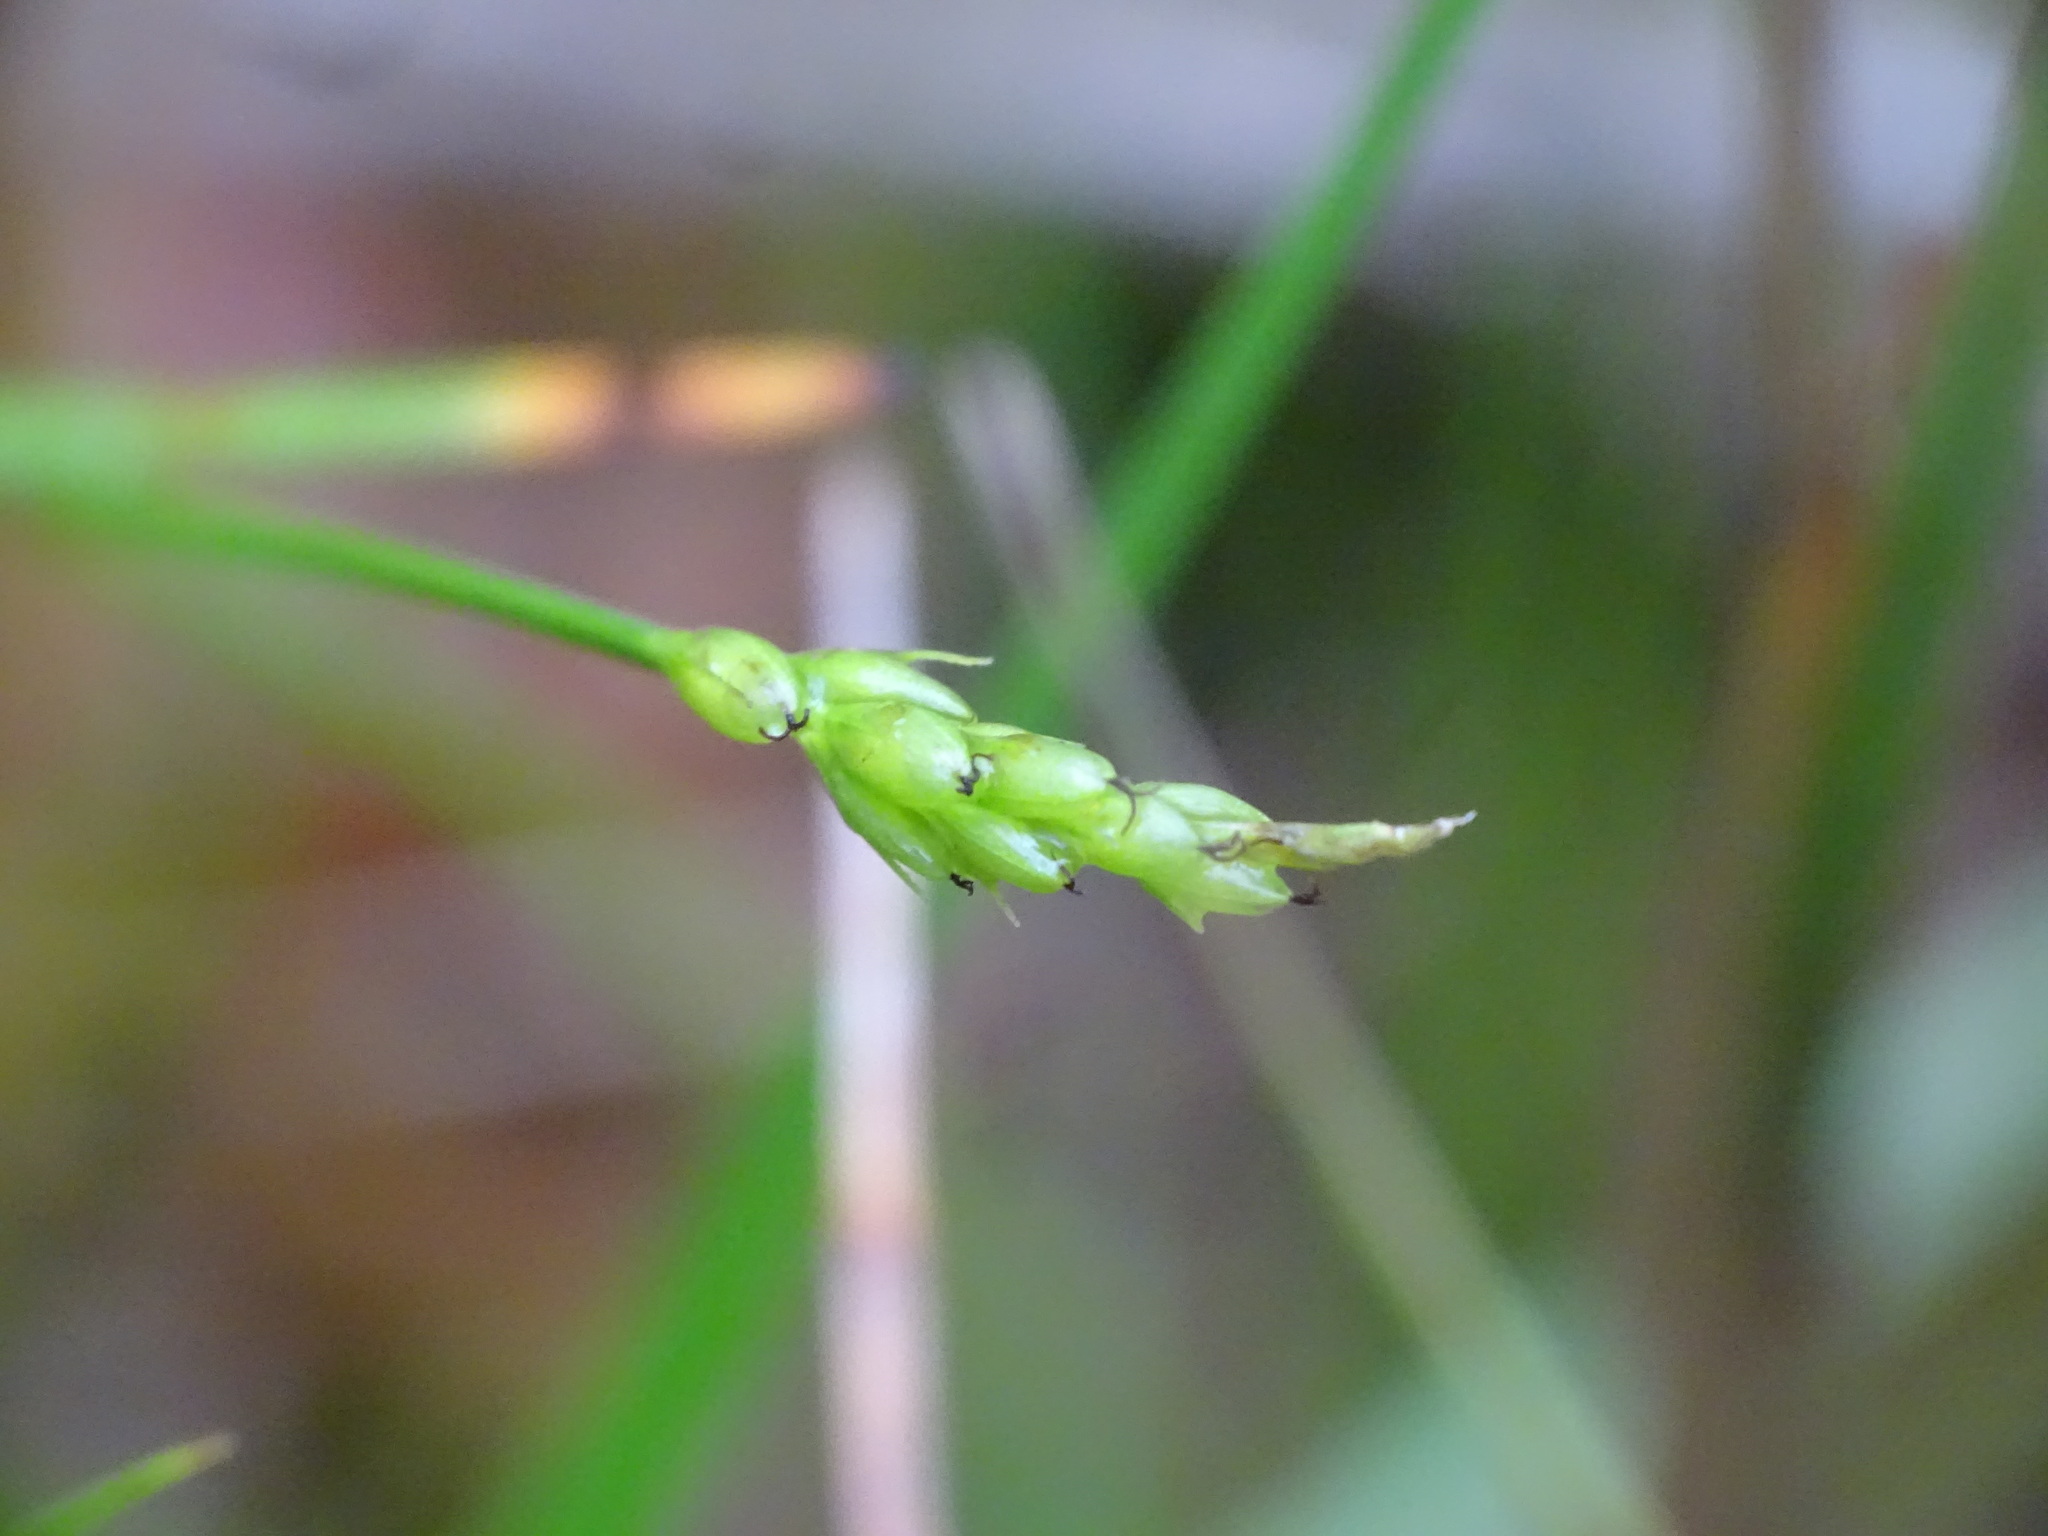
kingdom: Plantae
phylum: Tracheophyta
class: Liliopsida
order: Poales
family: Cyperaceae
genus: Carex
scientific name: Carex leptalea
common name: Bristly-stalked sedge
